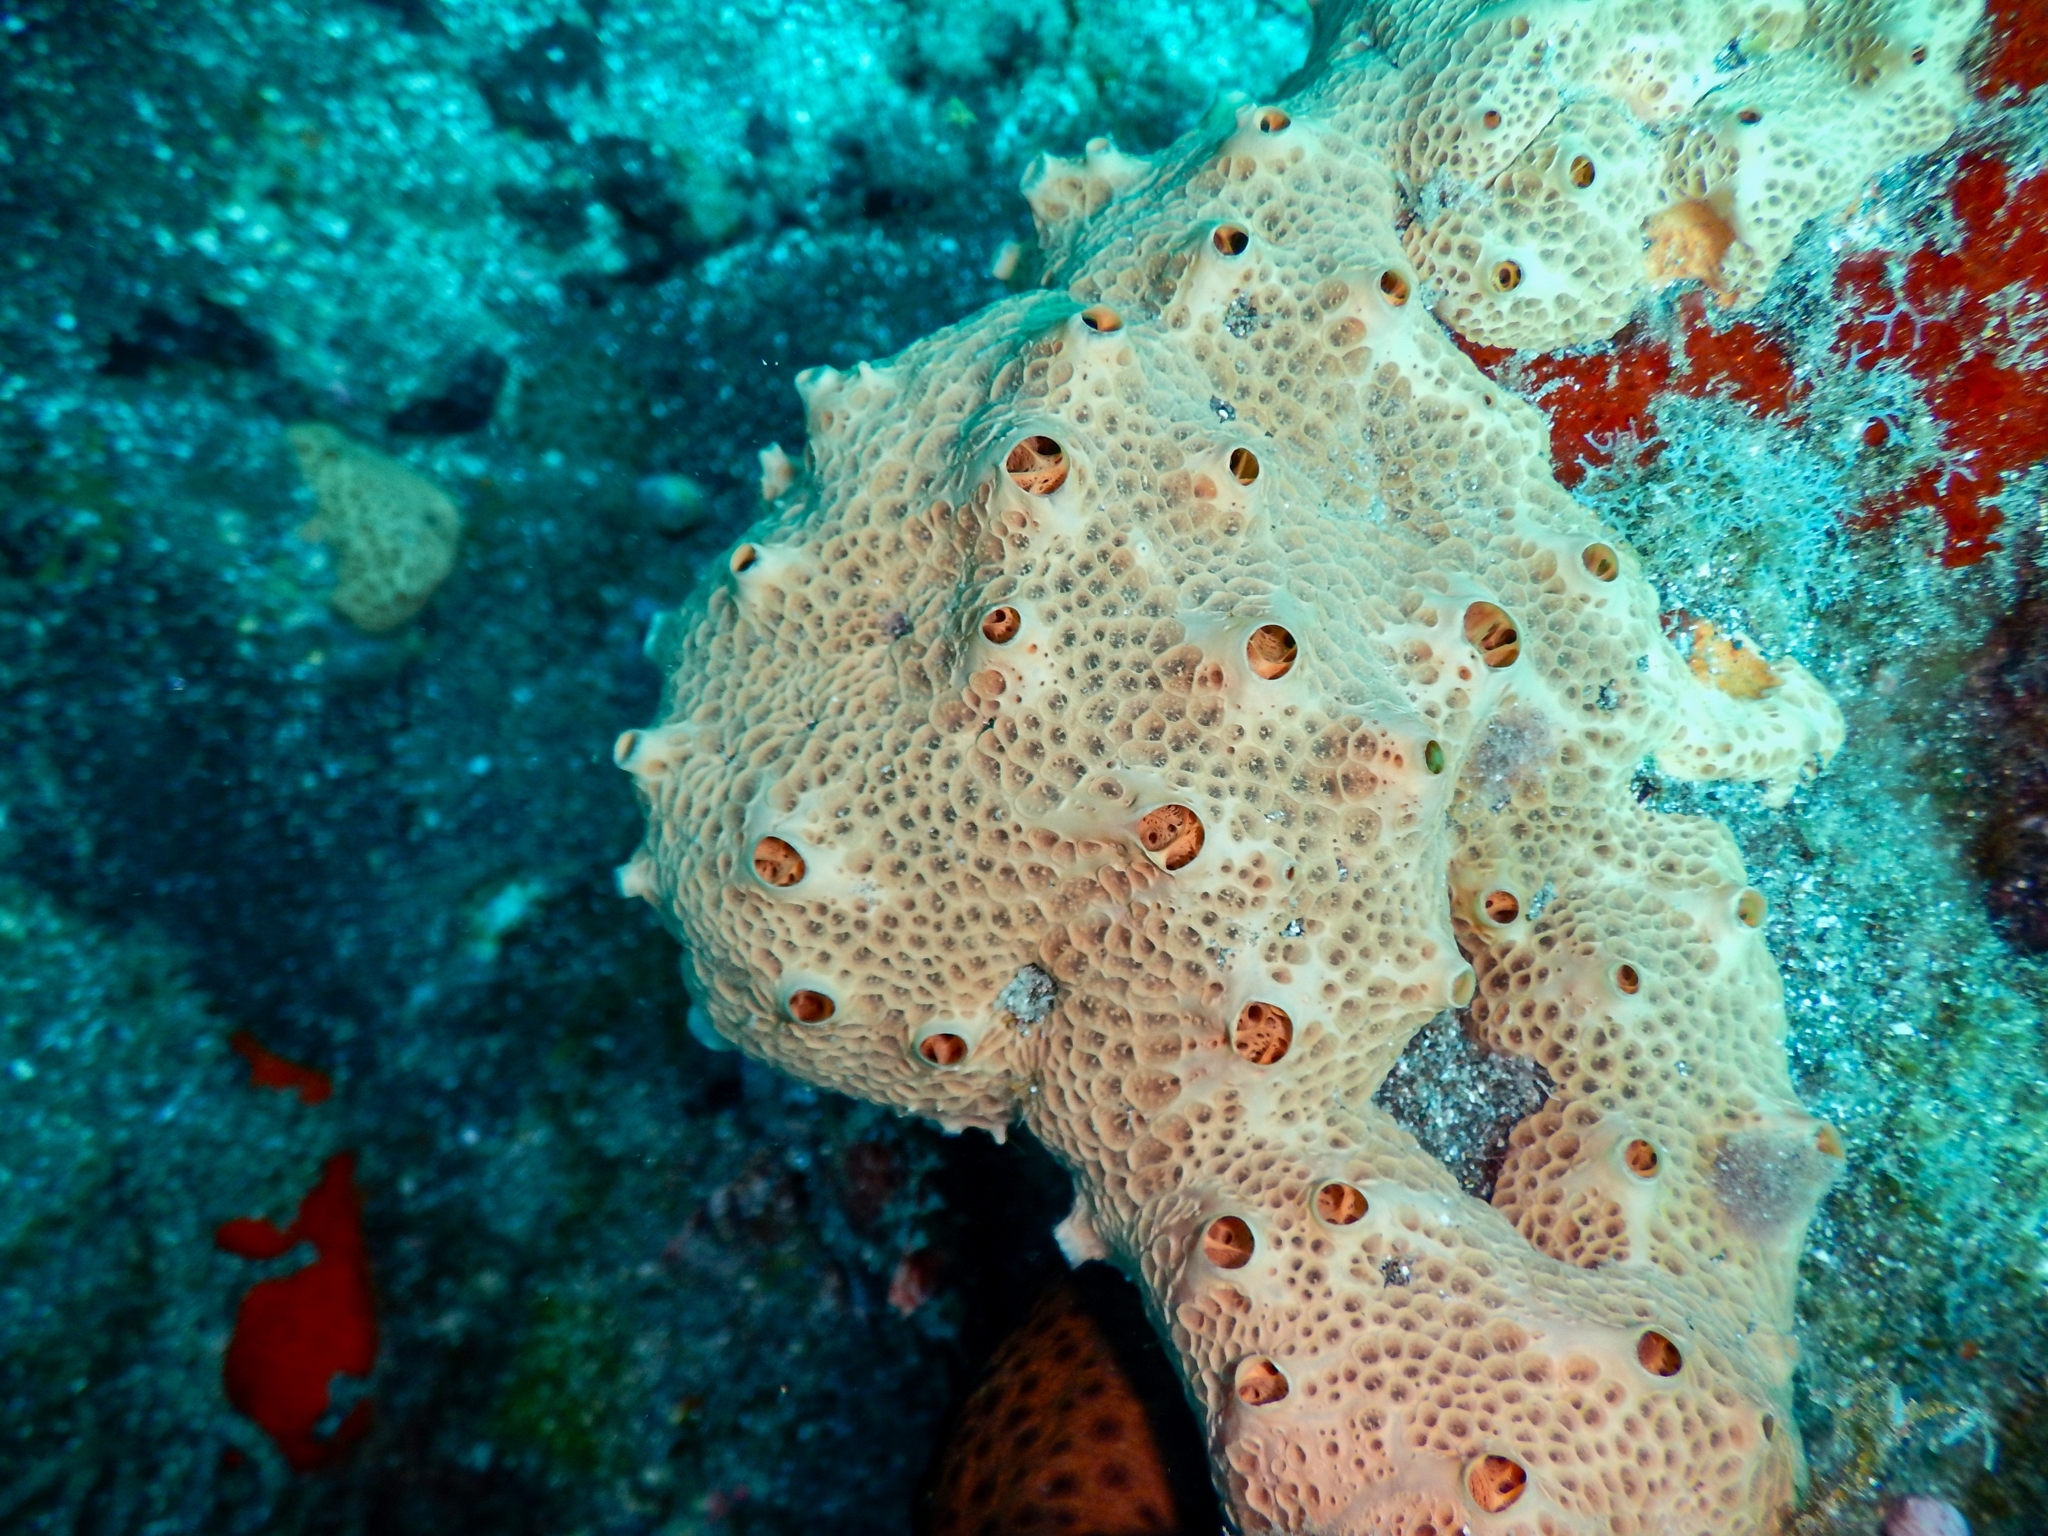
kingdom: Animalia
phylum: Porifera
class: Demospongiae
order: Poecilosclerida
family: Hymedesmiidae
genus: Hemimycale
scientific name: Hemimycale columella
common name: Crater sponge
